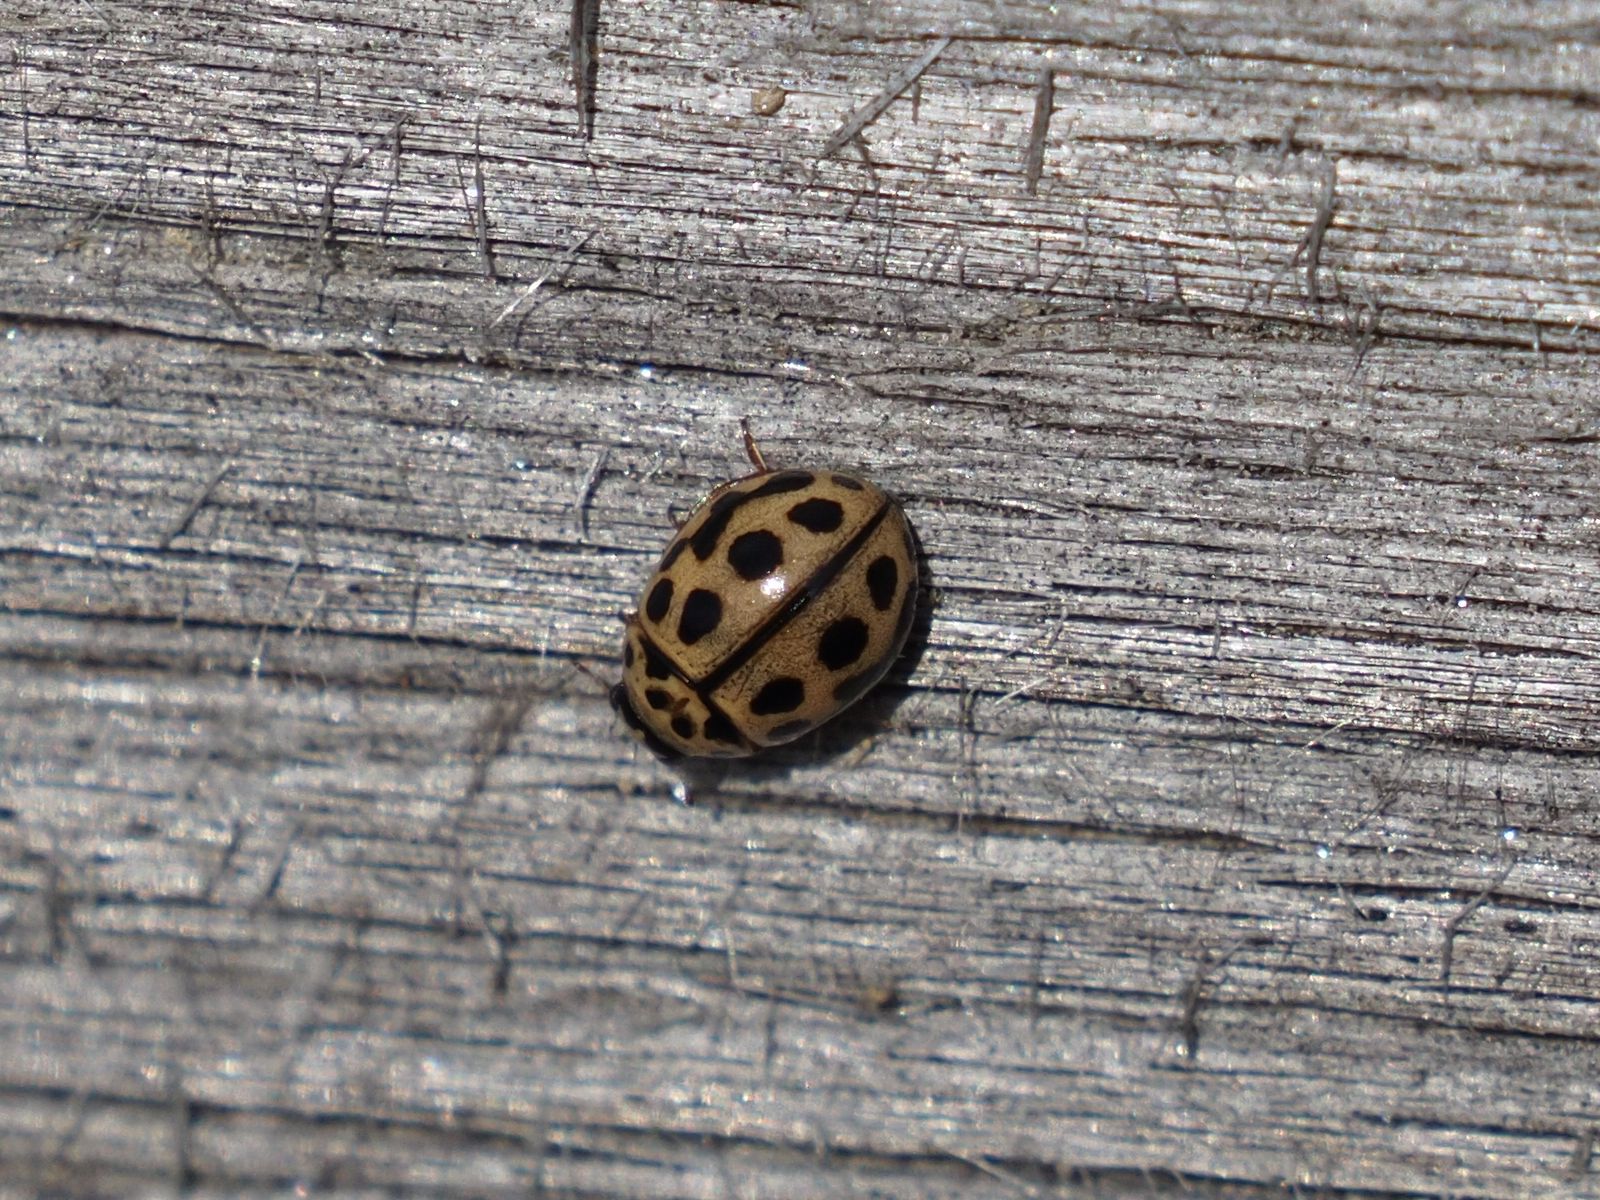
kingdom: Animalia
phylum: Arthropoda
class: Insecta
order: Coleoptera
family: Coccinellidae
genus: Tytthaspis
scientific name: Tytthaspis sedecimpunctata
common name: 16-spot ladybird
